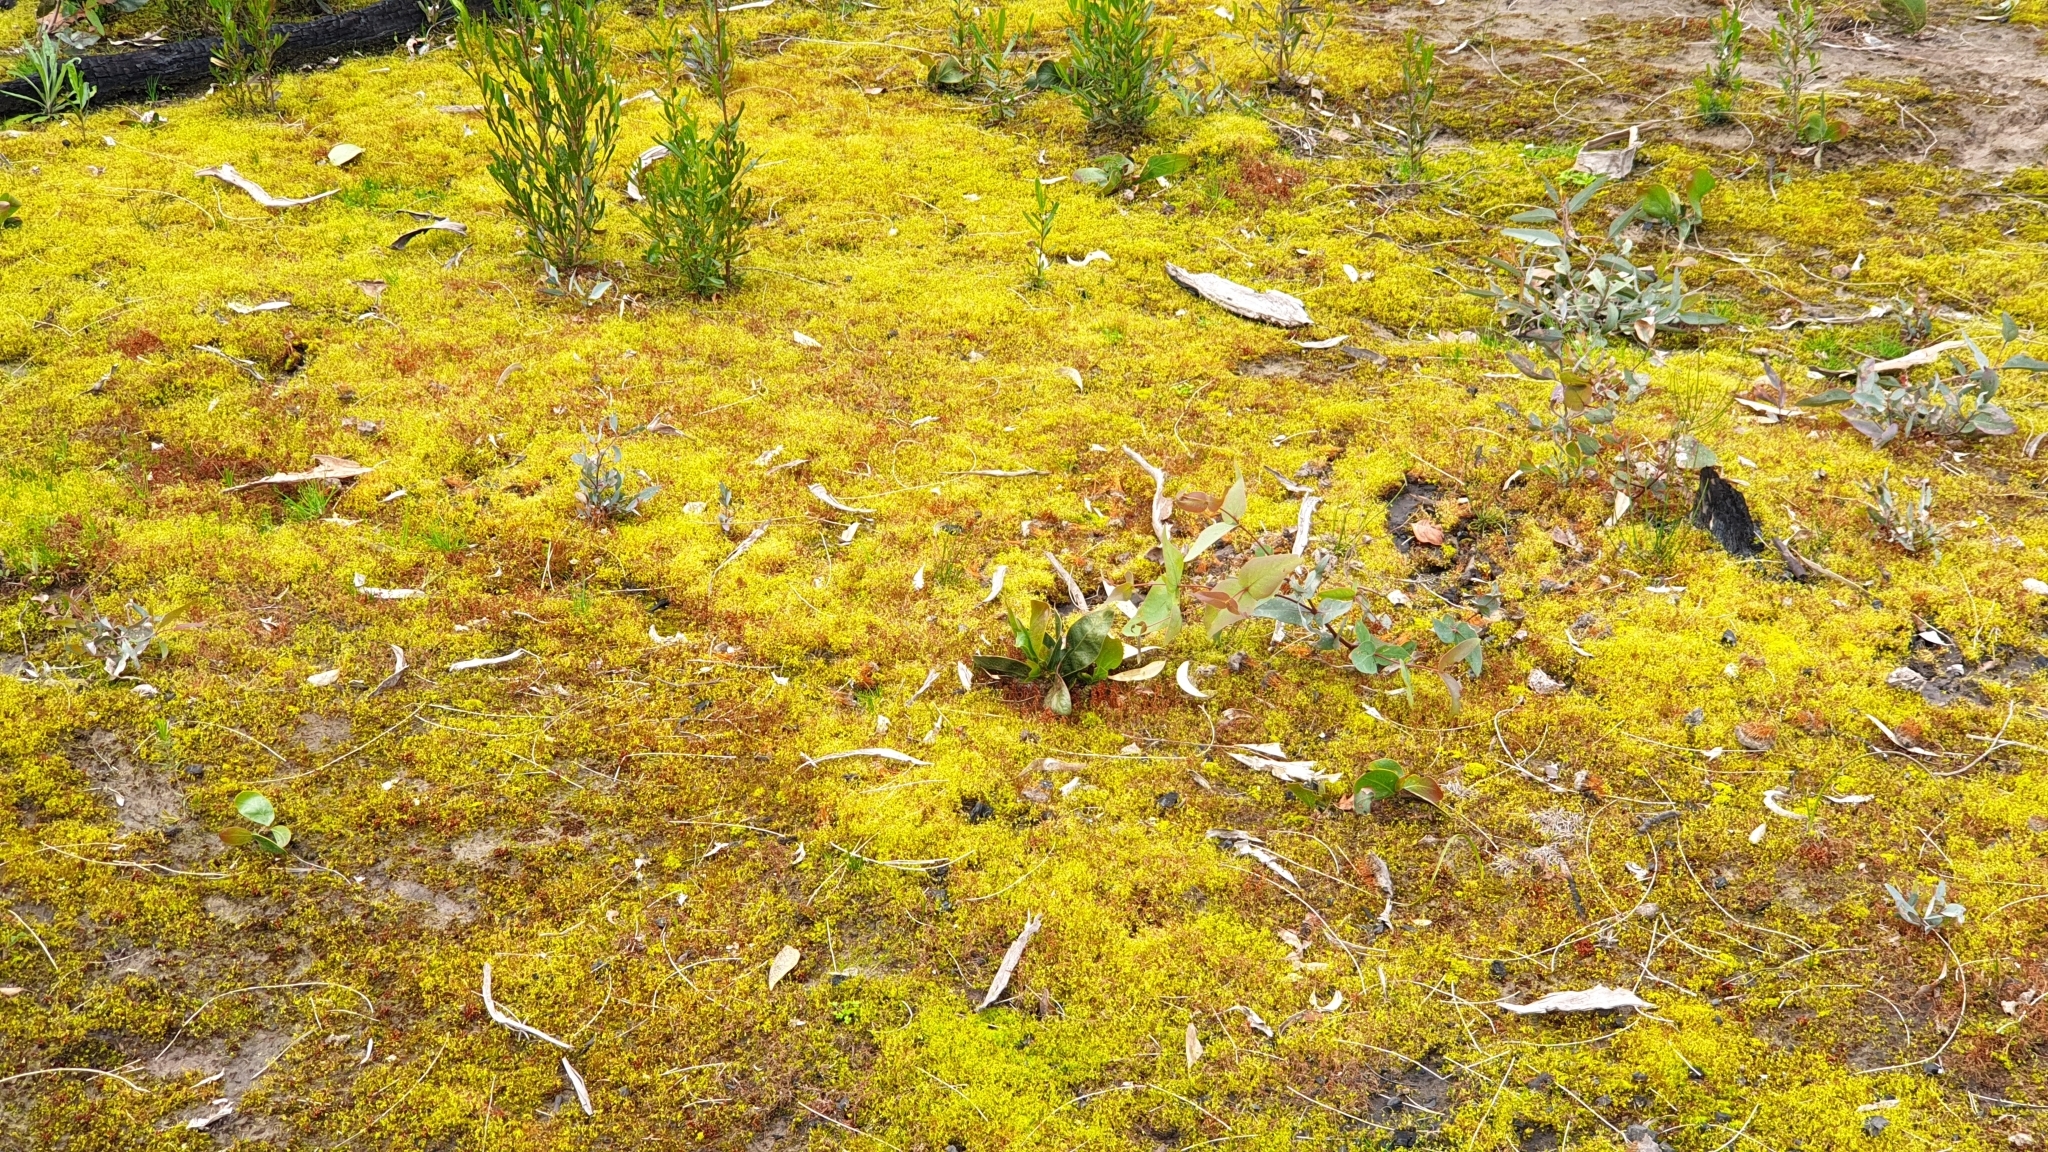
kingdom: Plantae
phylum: Bryophyta
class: Bryopsida
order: Funariales
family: Funariaceae
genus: Funaria
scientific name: Funaria hygrometrica
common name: Common cord moss
